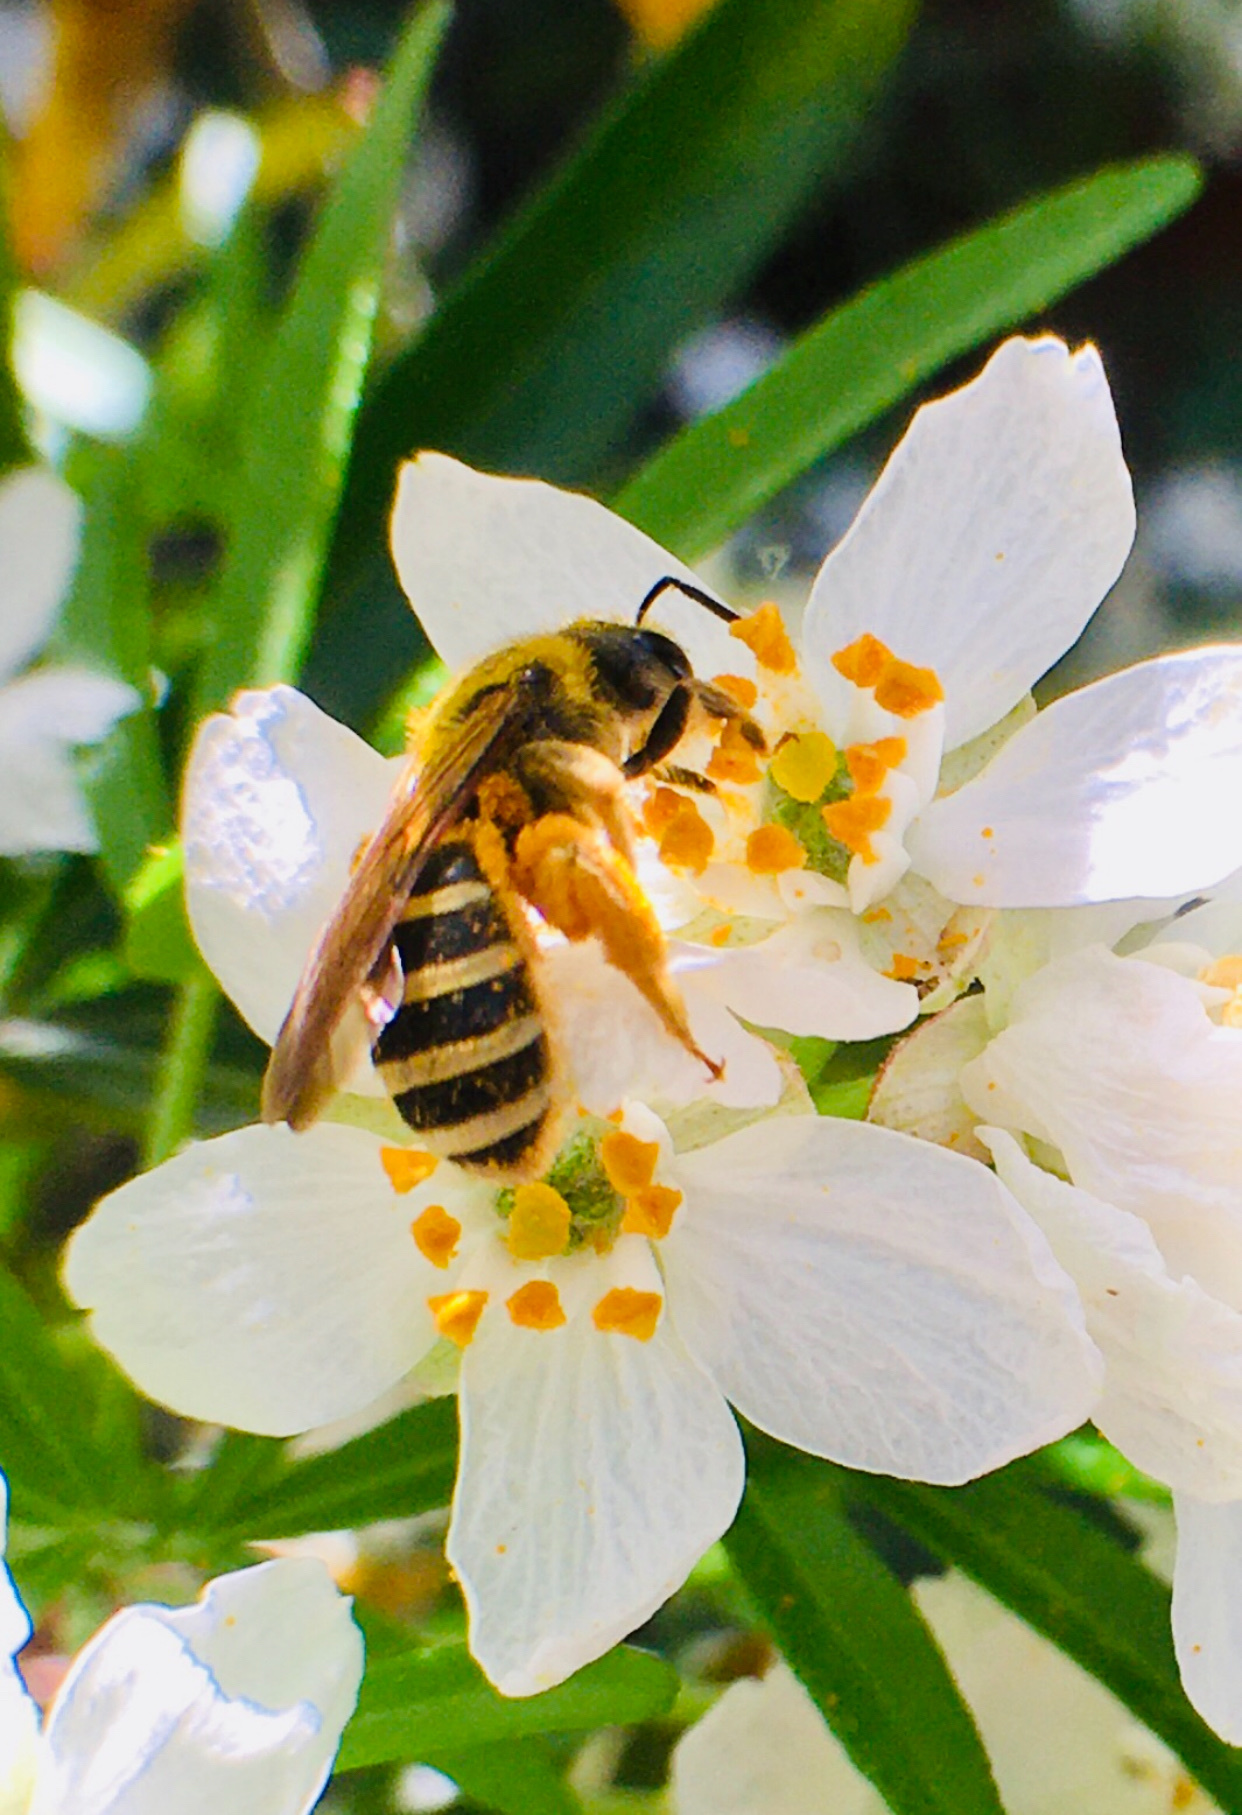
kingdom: Animalia
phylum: Arthropoda
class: Insecta
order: Hymenoptera
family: Halictidae
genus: Halictus
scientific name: Halictus farinosus
